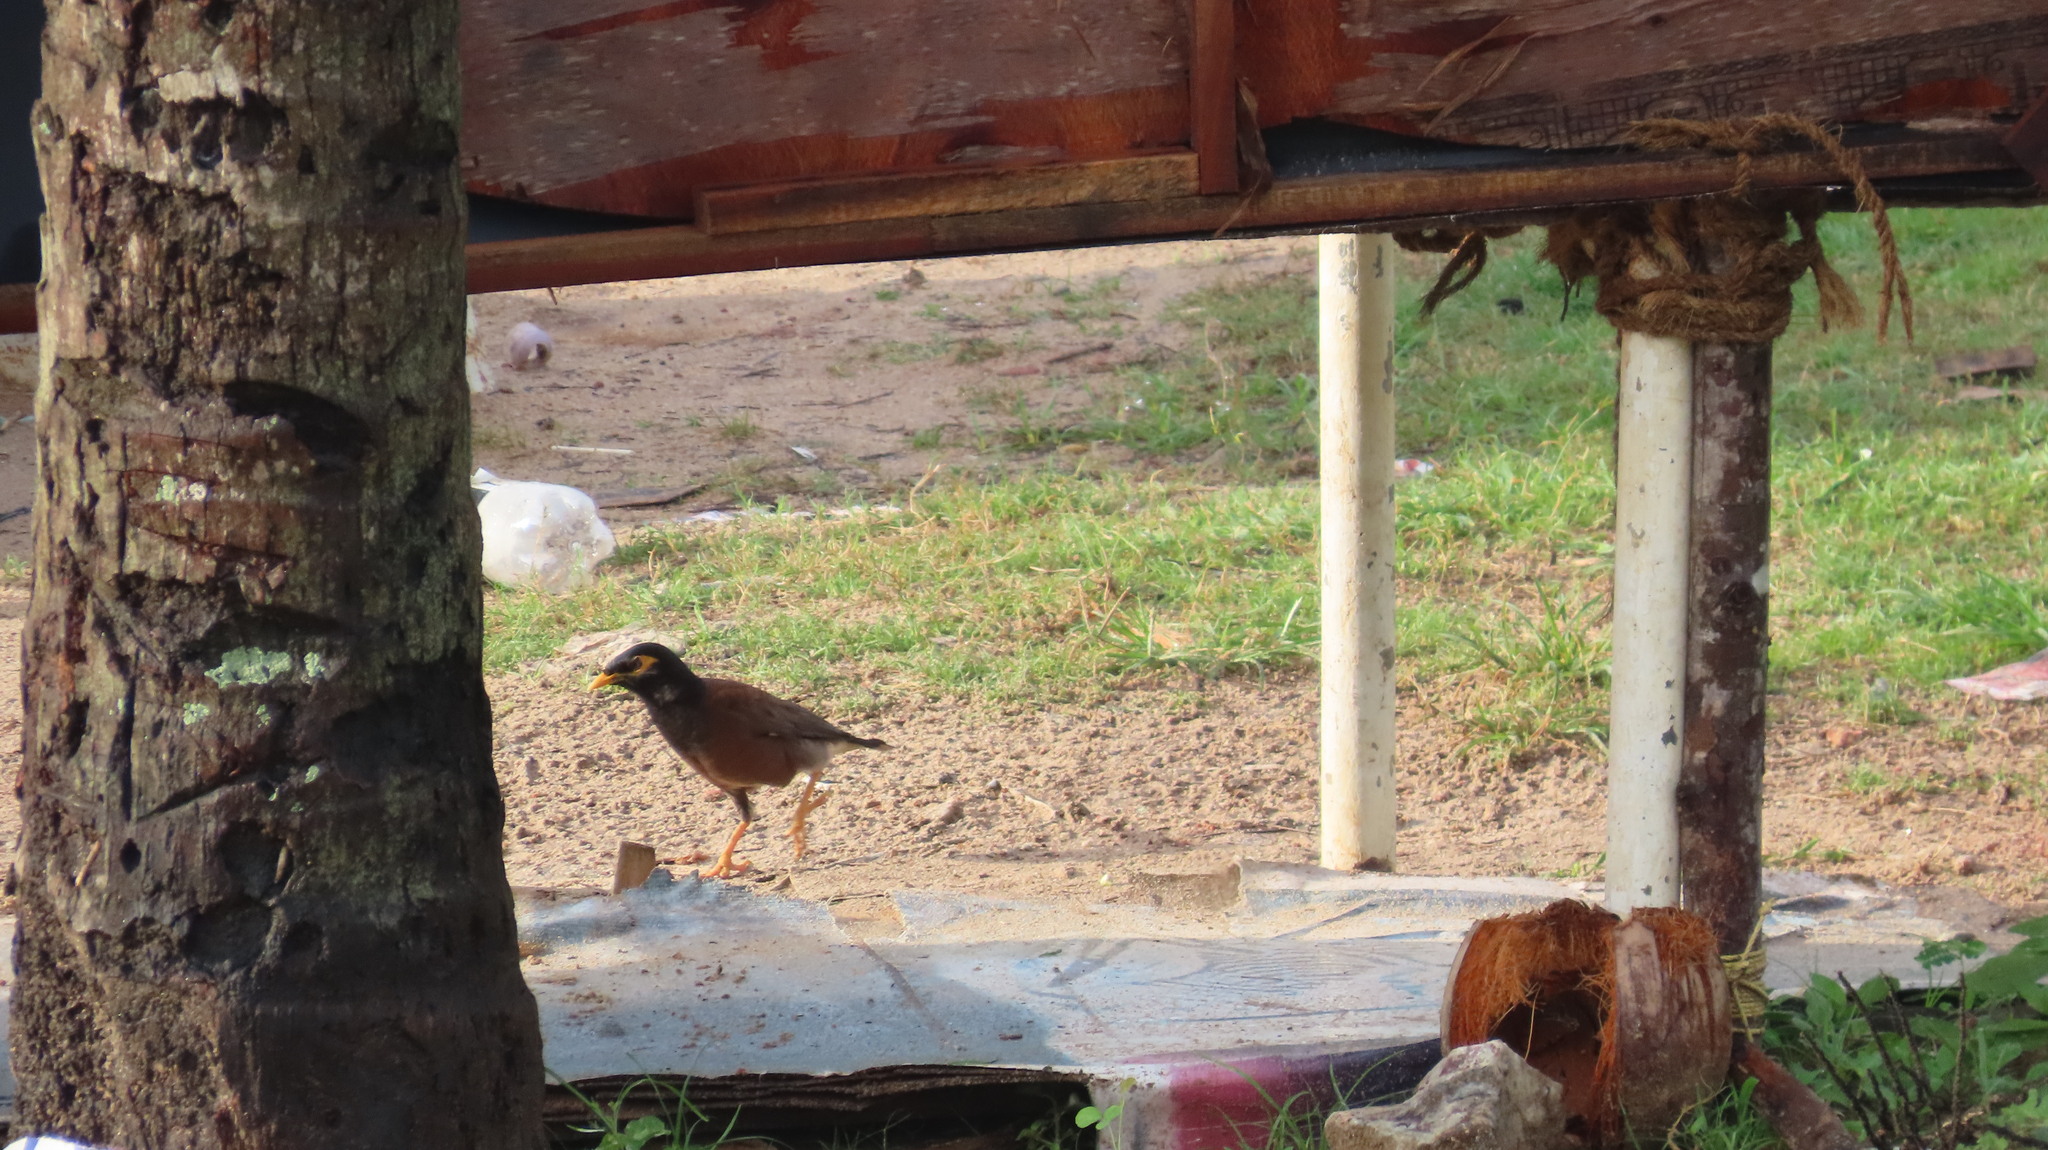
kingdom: Animalia
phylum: Chordata
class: Aves
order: Passeriformes
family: Sturnidae
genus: Acridotheres
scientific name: Acridotheres tristis
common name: Common myna
